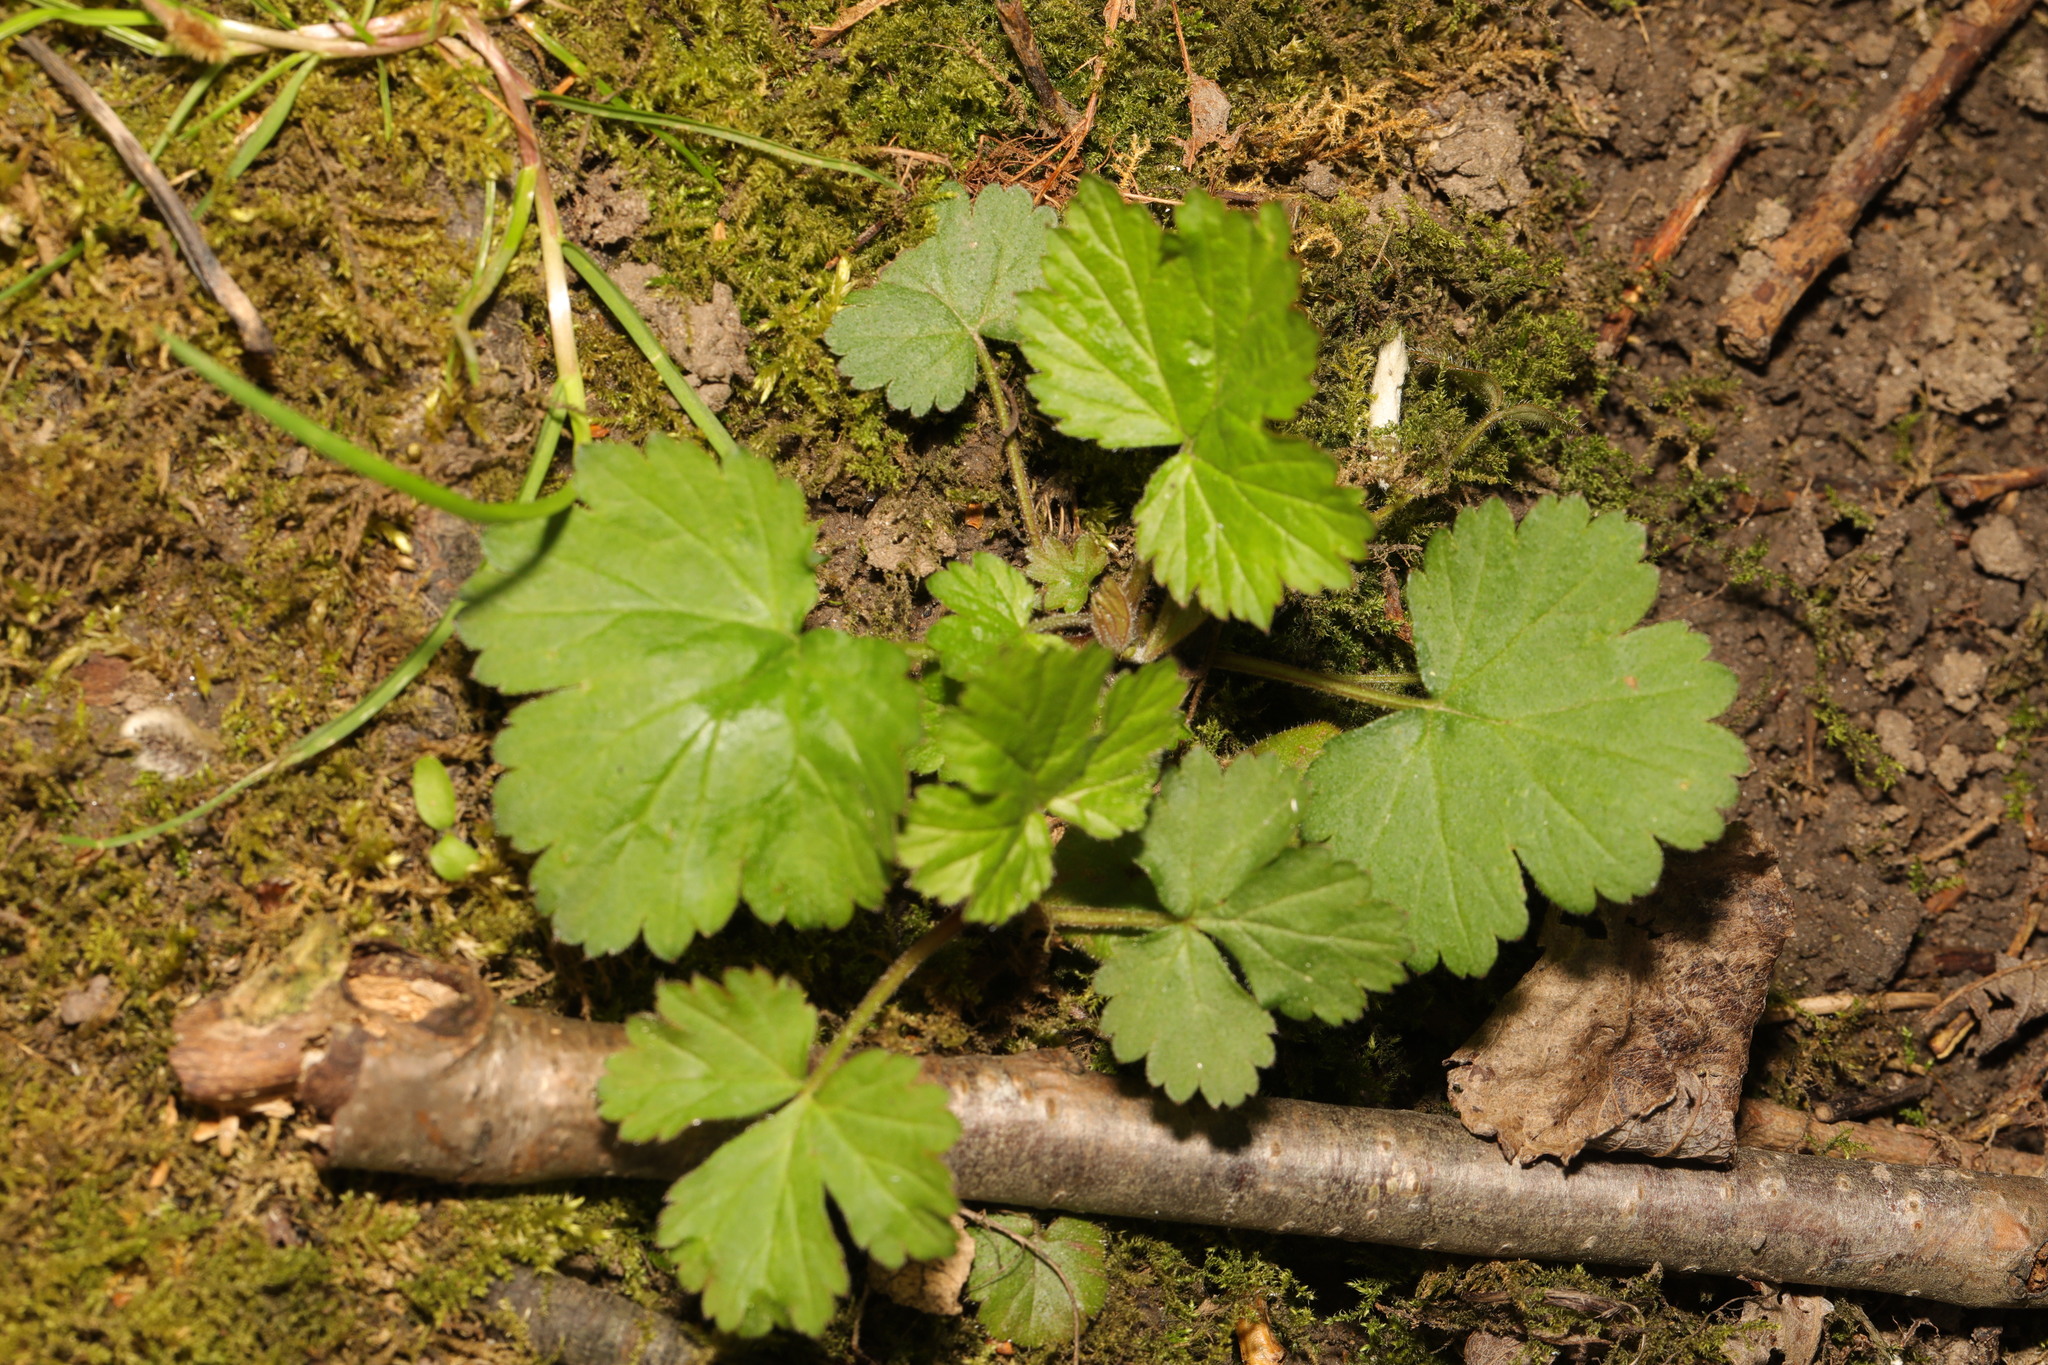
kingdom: Plantae
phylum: Tracheophyta
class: Magnoliopsida
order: Rosales
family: Rosaceae
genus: Geum
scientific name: Geum urbanum
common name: Wood avens
